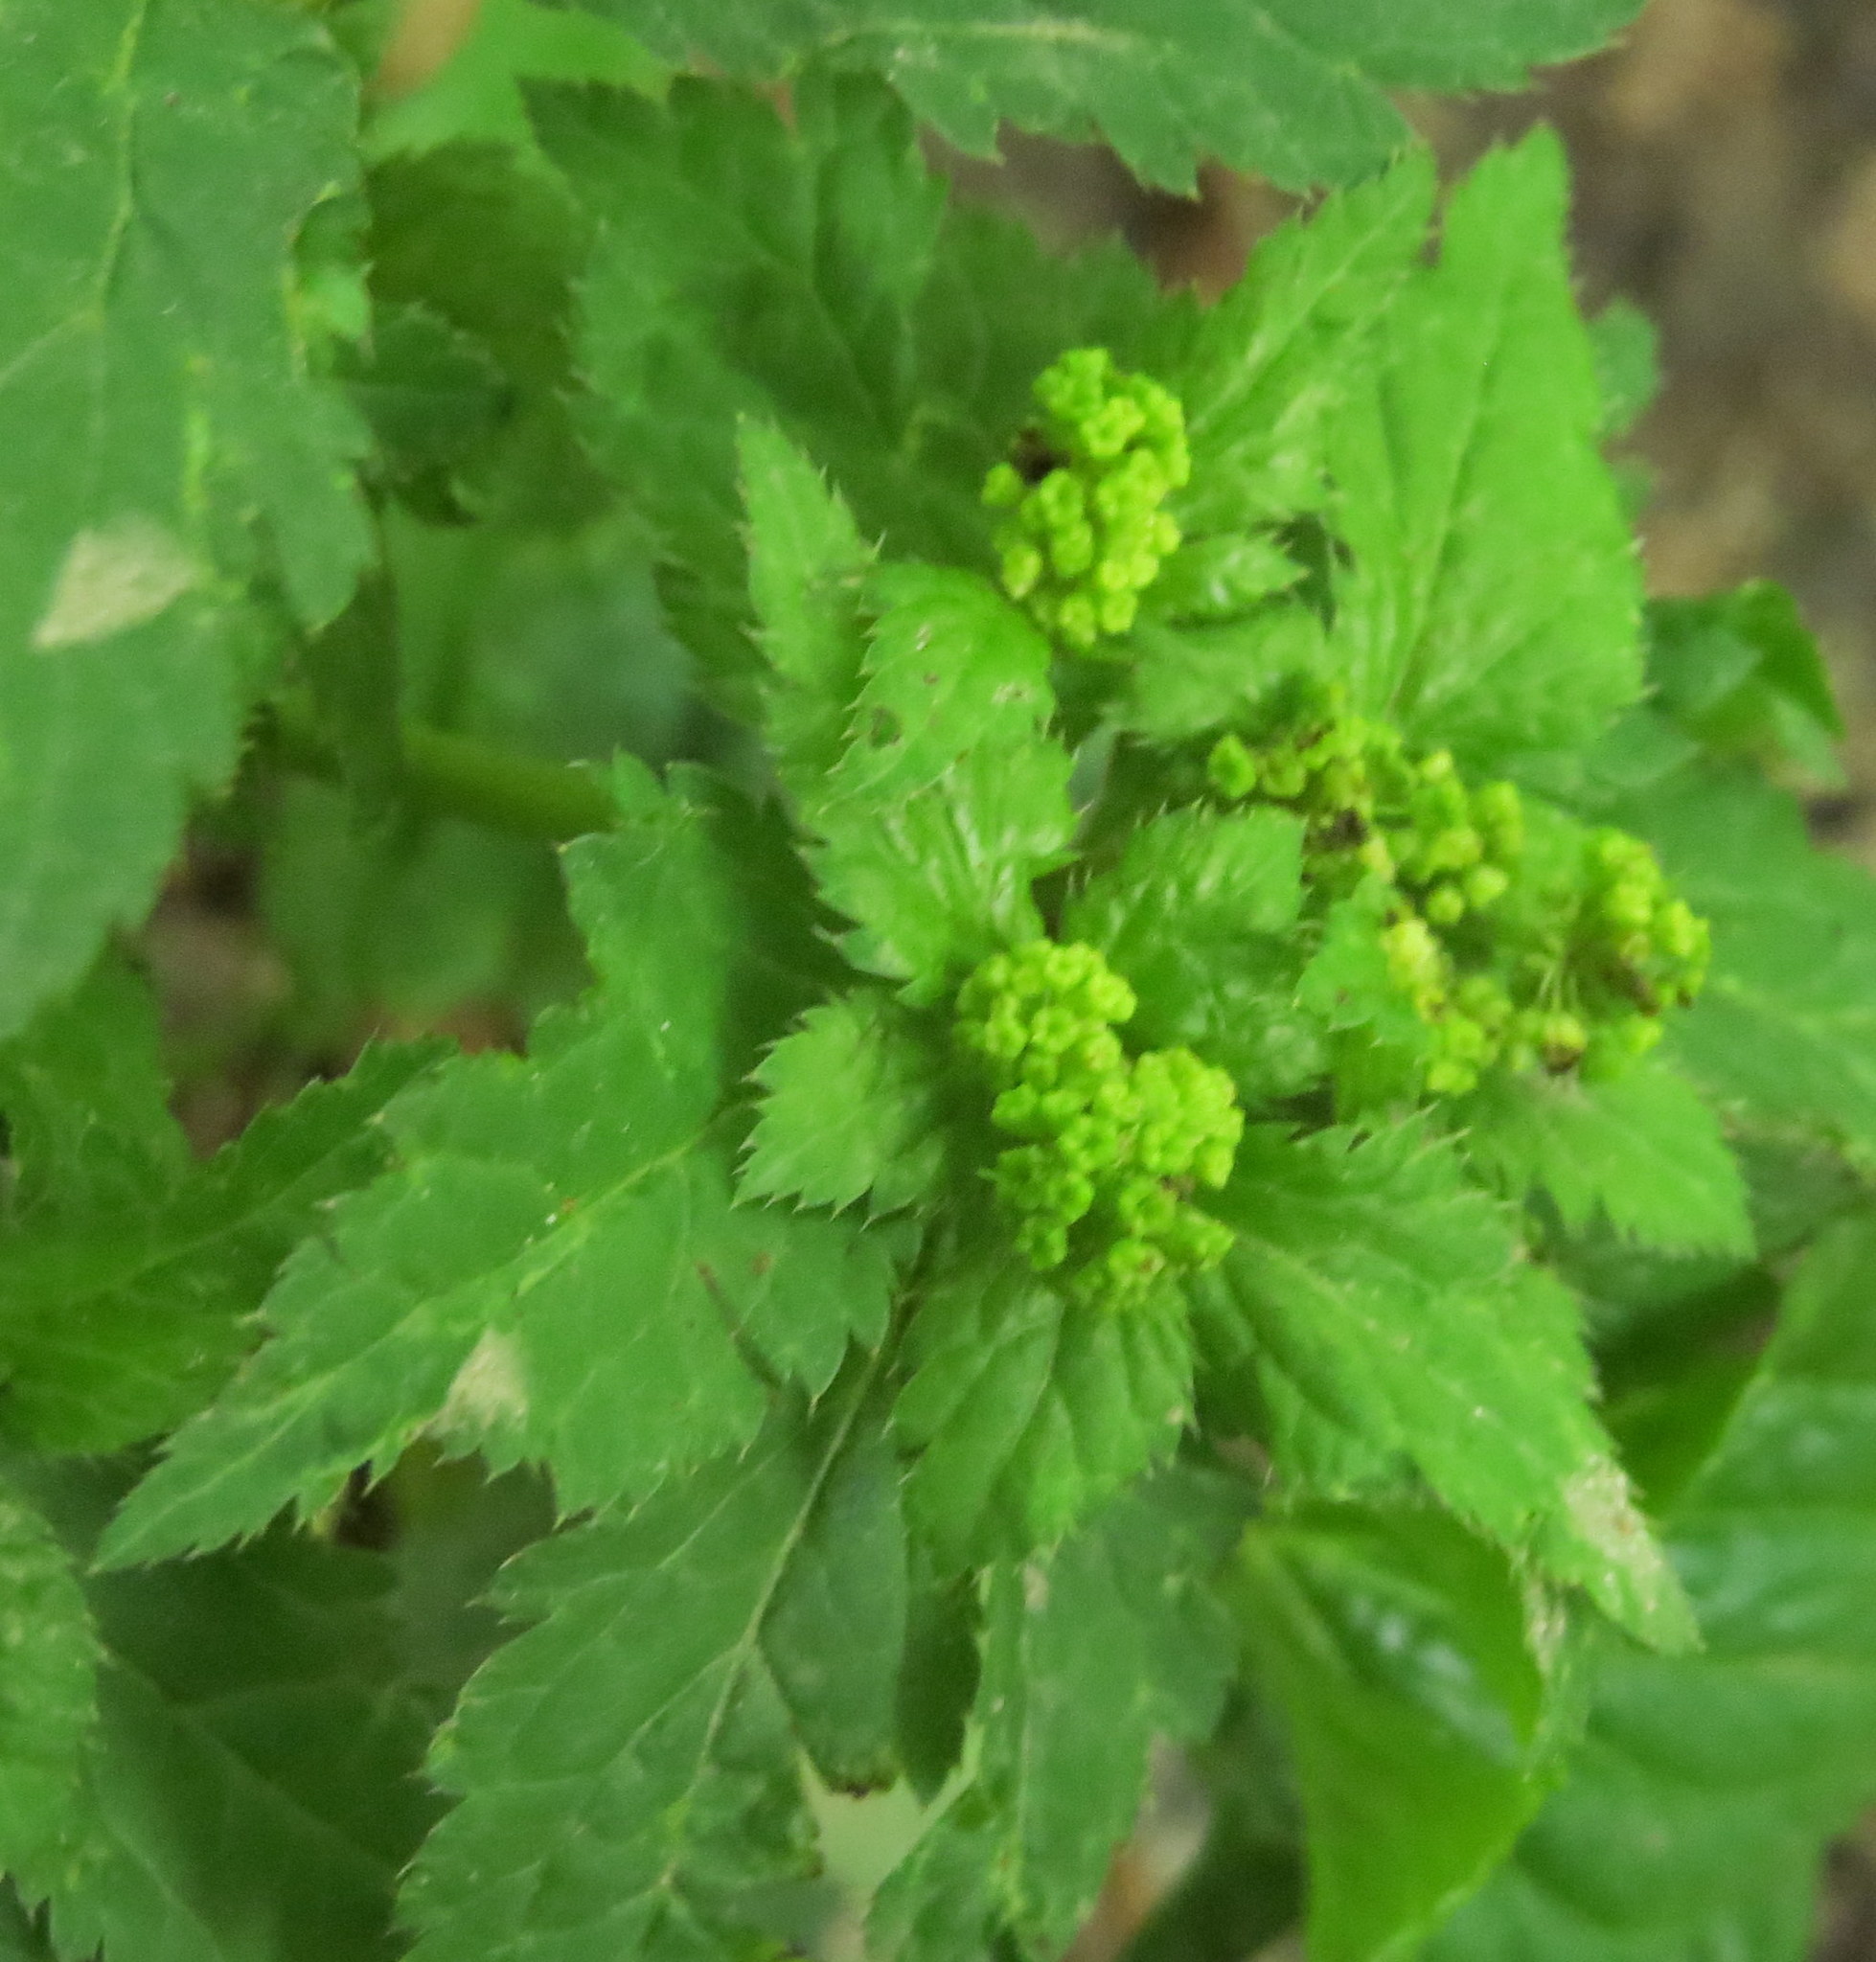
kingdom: Plantae
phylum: Tracheophyta
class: Magnoliopsida
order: Apiales
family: Apiaceae
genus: Sanicula
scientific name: Sanicula
